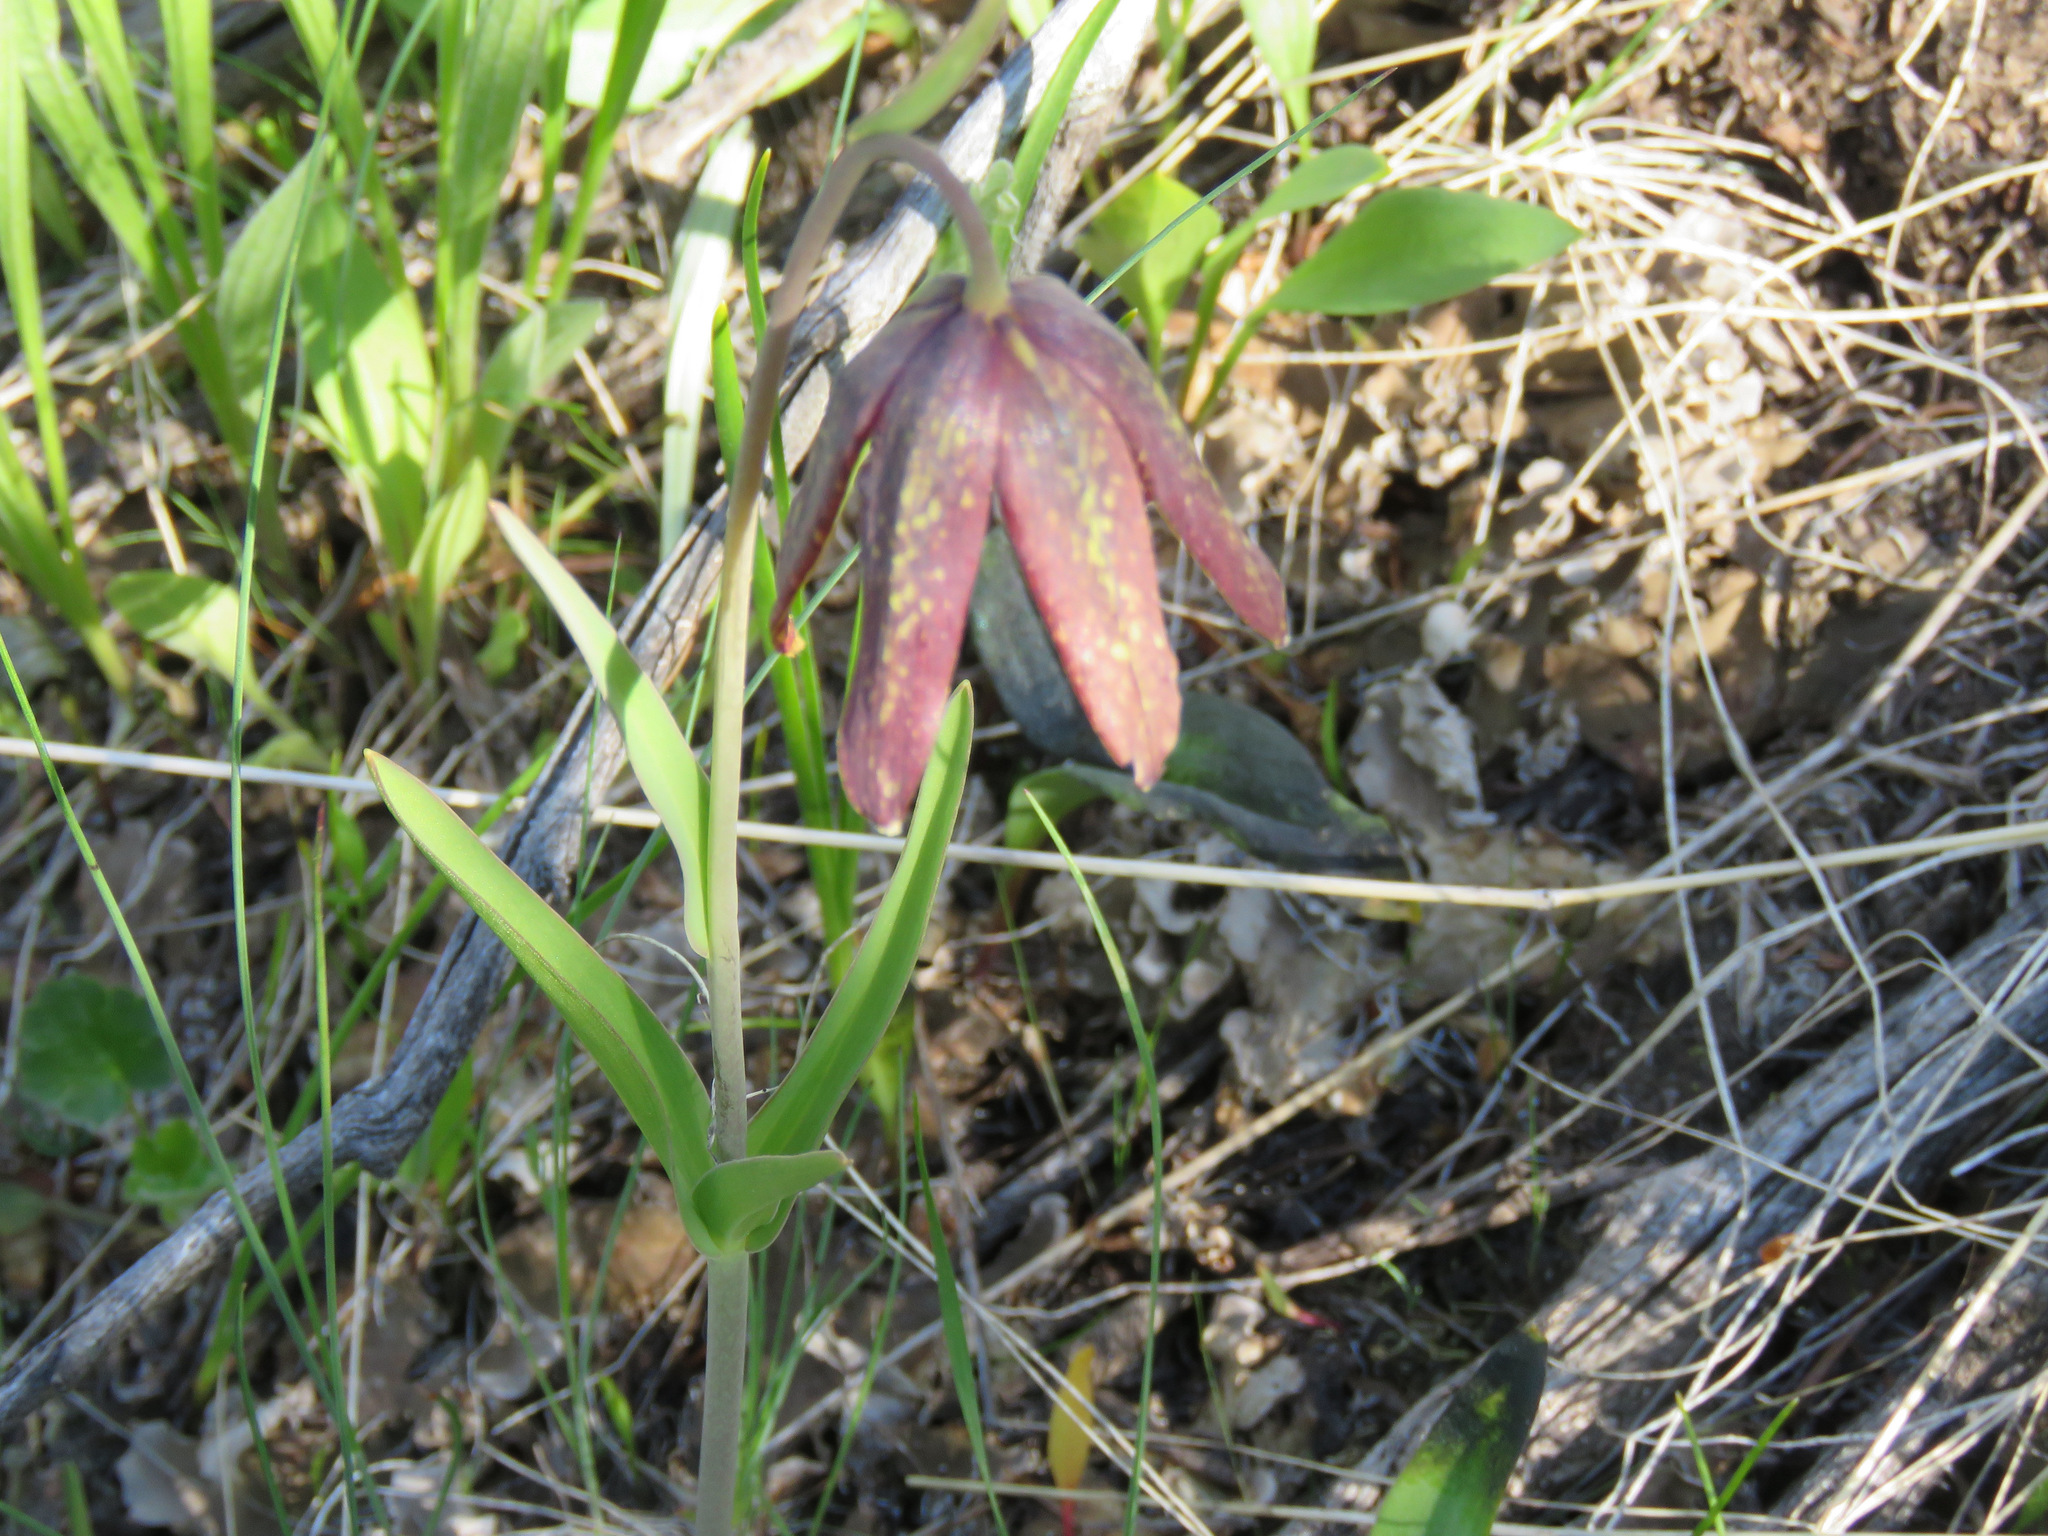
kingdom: Plantae
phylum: Tracheophyta
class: Liliopsida
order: Liliales
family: Liliaceae
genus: Fritillaria
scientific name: Fritillaria affinis
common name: Ojai fritillary
